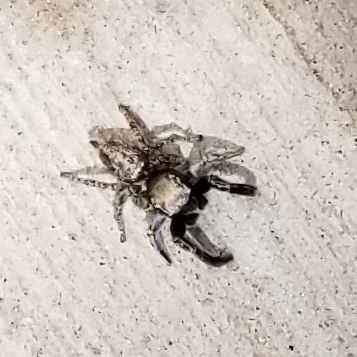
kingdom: Animalia
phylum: Arthropoda
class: Arachnida
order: Araneae
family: Salticidae
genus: Habronattus
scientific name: Habronattus hirsutus
